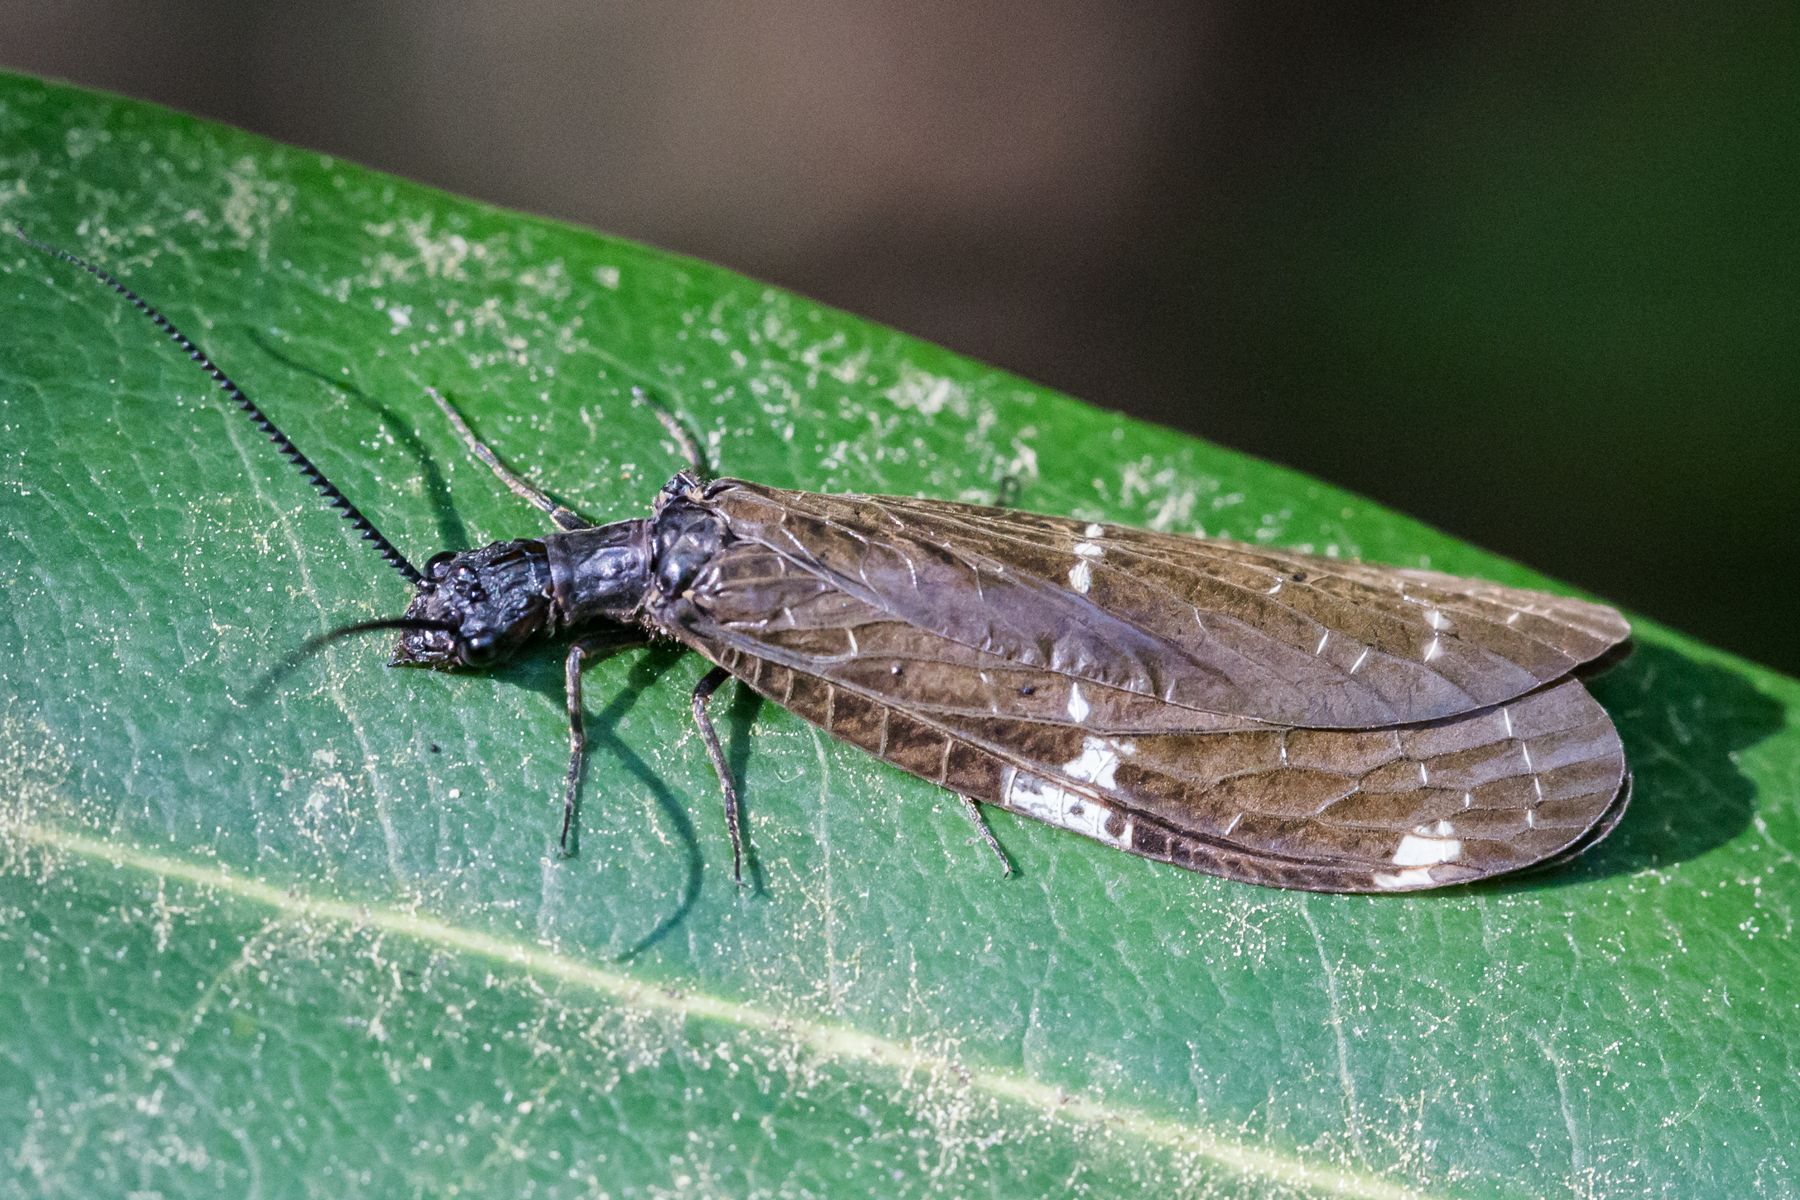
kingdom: Animalia
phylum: Arthropoda
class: Insecta
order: Megaloptera
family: Corydalidae
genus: Nigronia
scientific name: Nigronia serricornis
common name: Serrate dark fishfly
